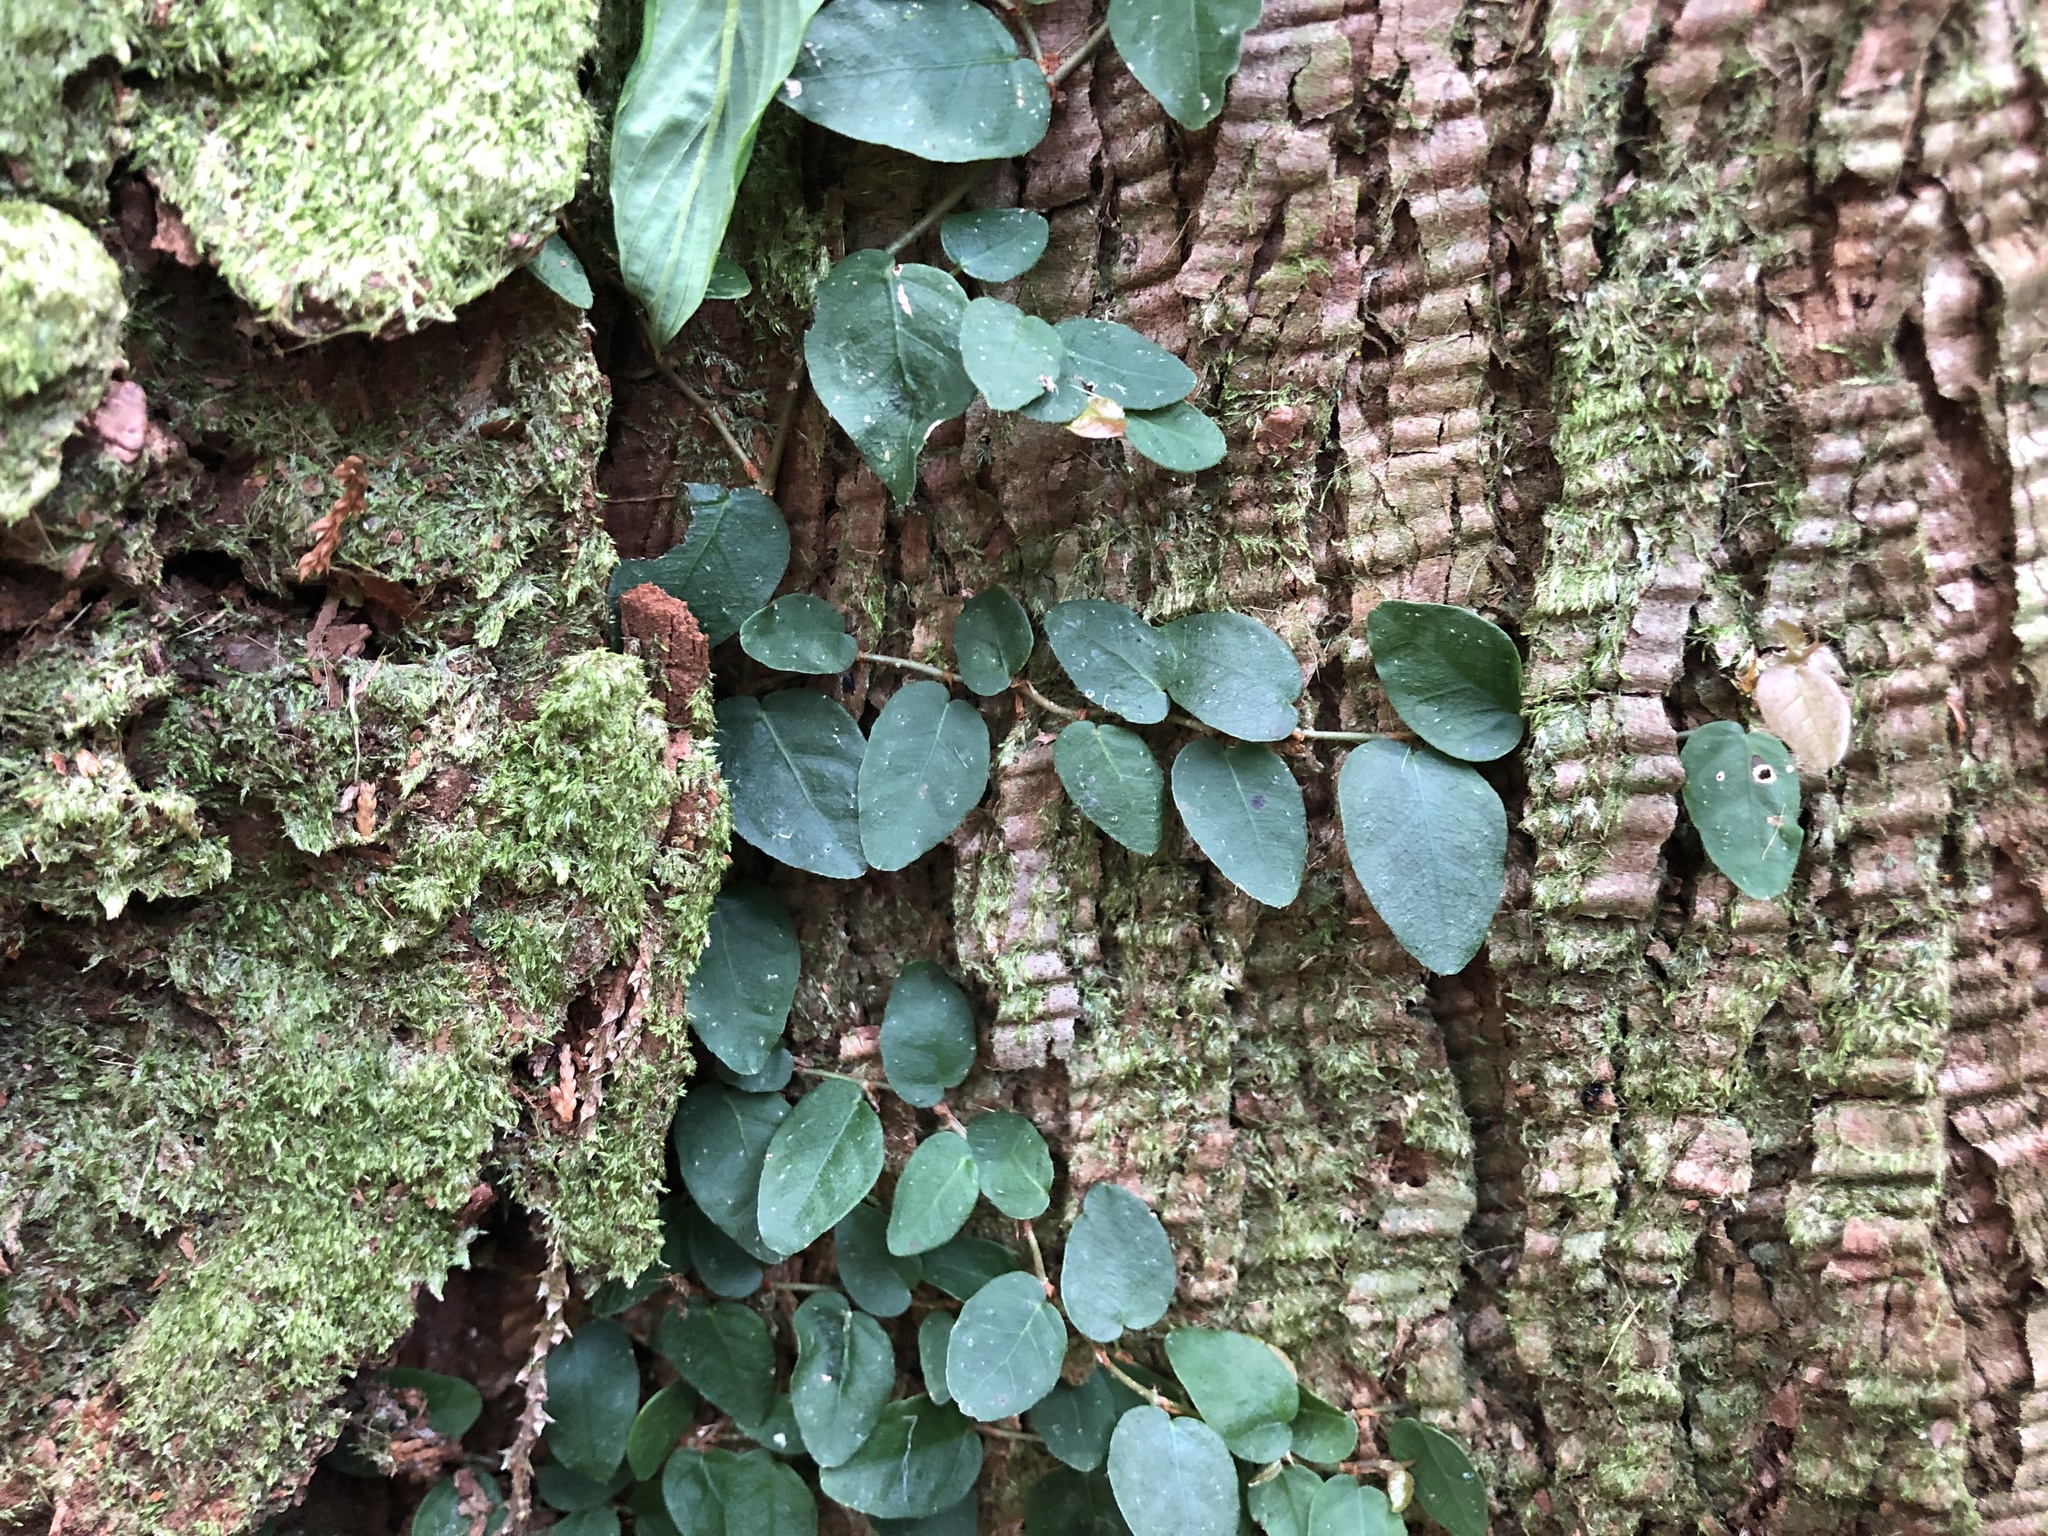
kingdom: Plantae
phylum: Tracheophyta
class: Magnoliopsida
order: Rosales
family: Moraceae
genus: Ficus
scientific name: Ficus pumila
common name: Climbingfig
